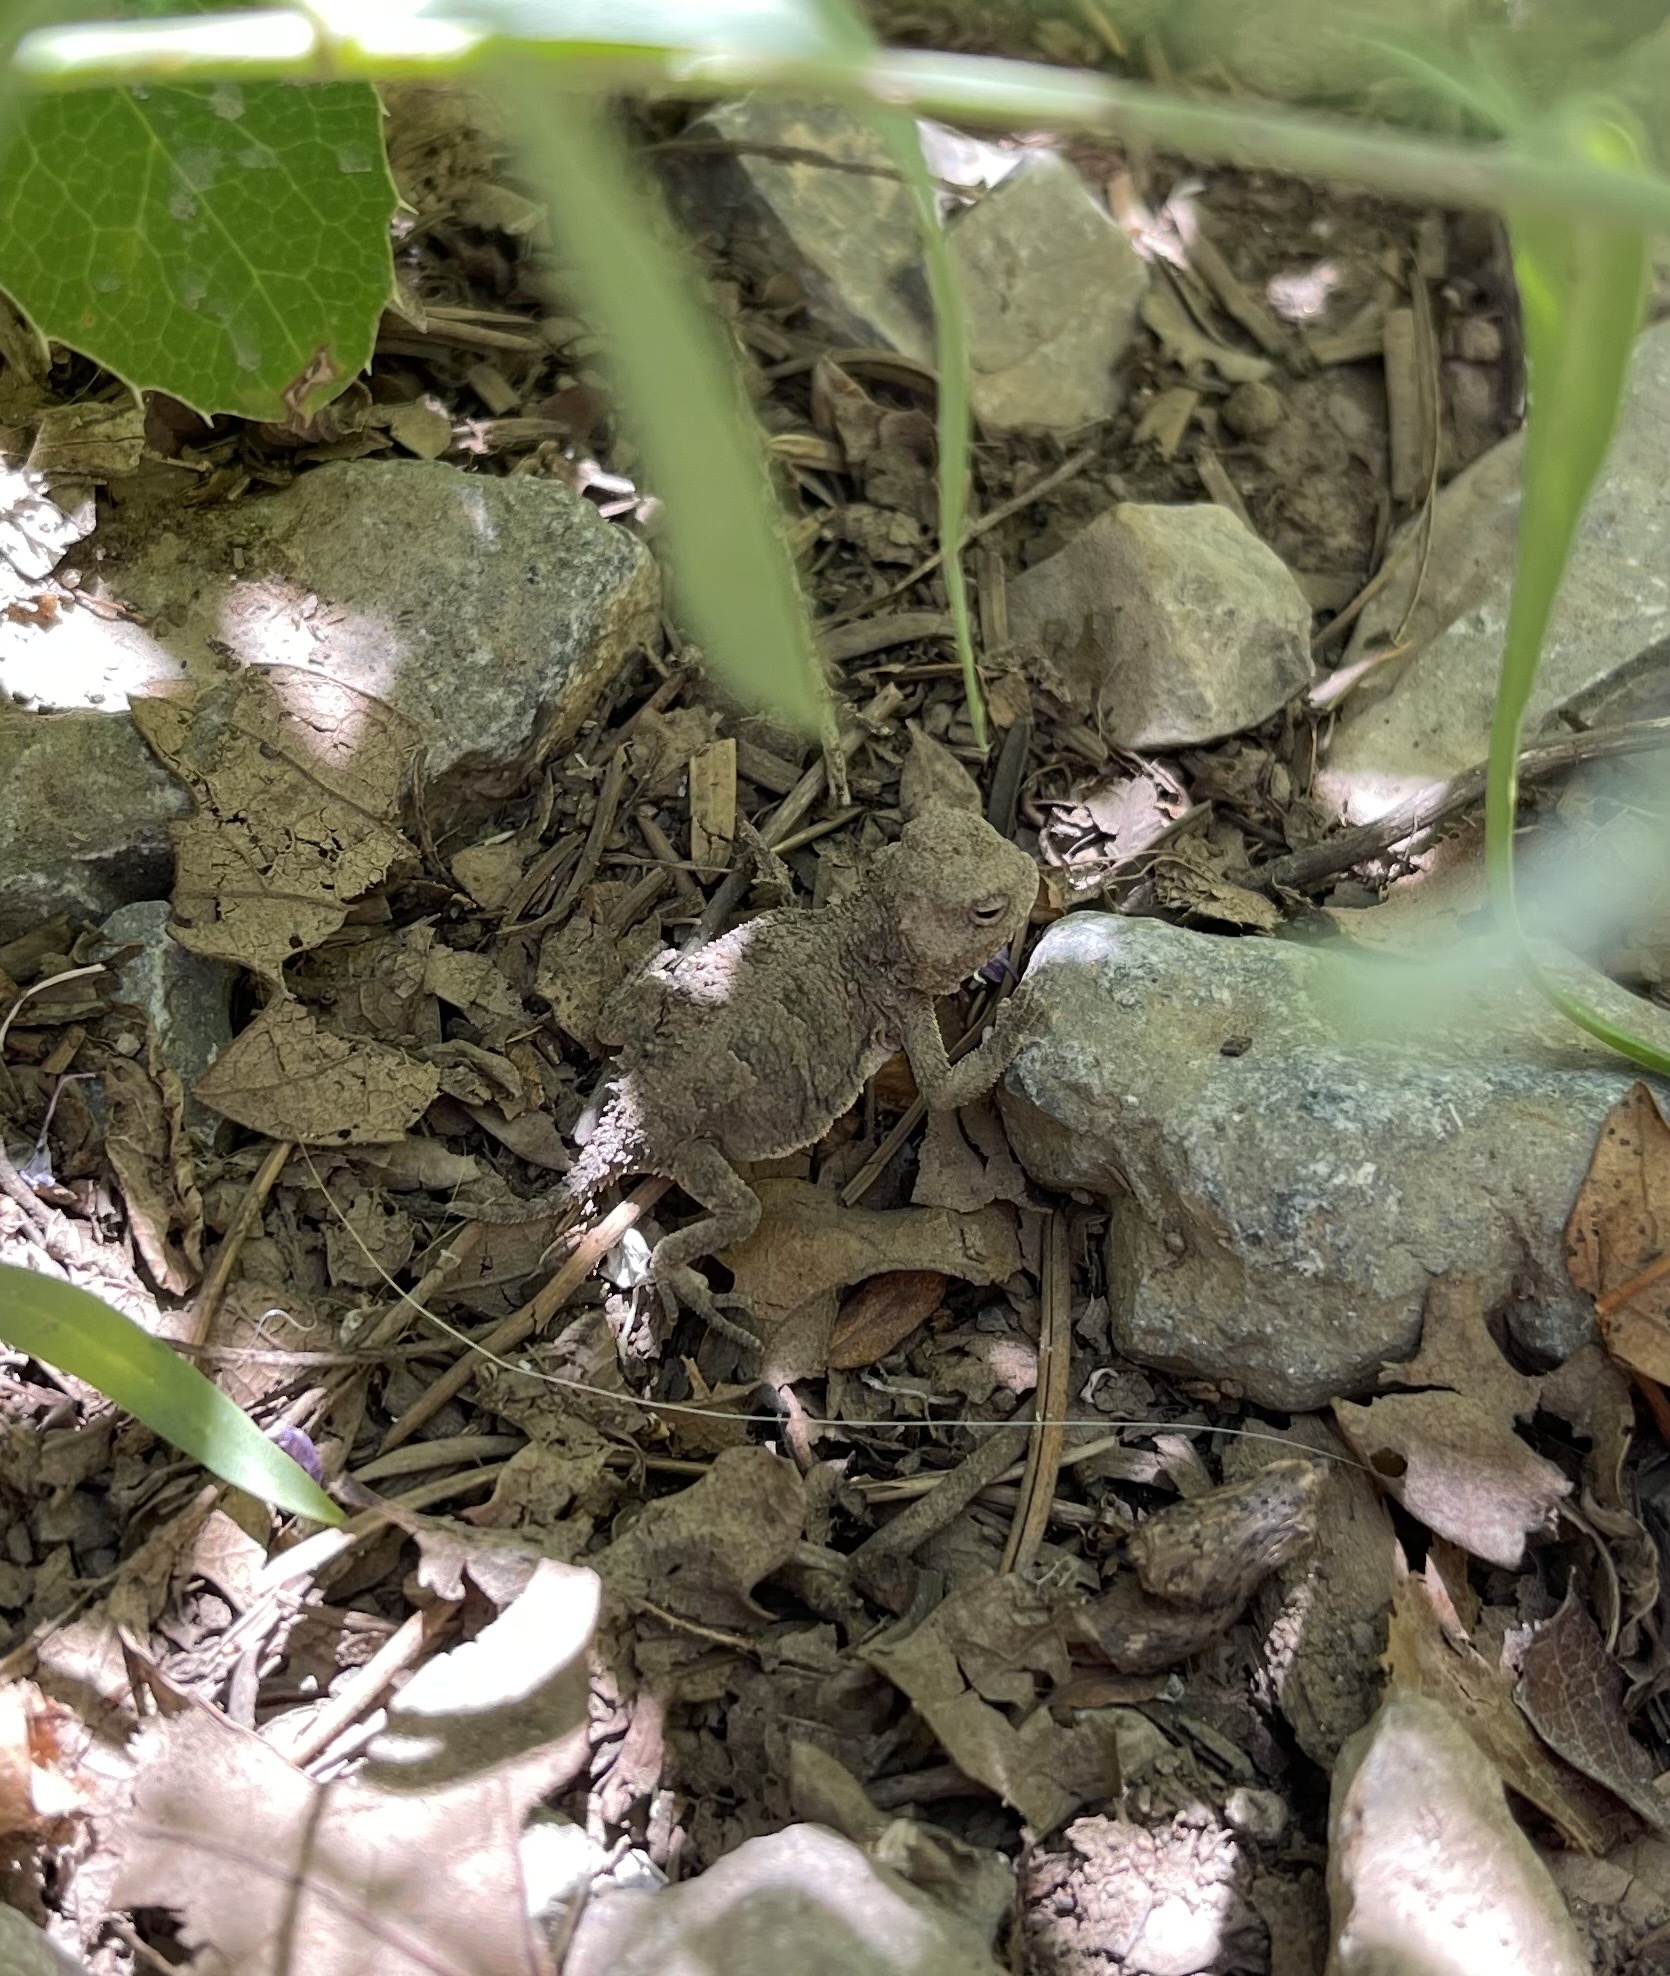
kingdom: Animalia
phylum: Chordata
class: Squamata
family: Phrynosomatidae
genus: Phrynosoma
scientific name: Phrynosoma hernandesi
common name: Greater short-horned lizard
